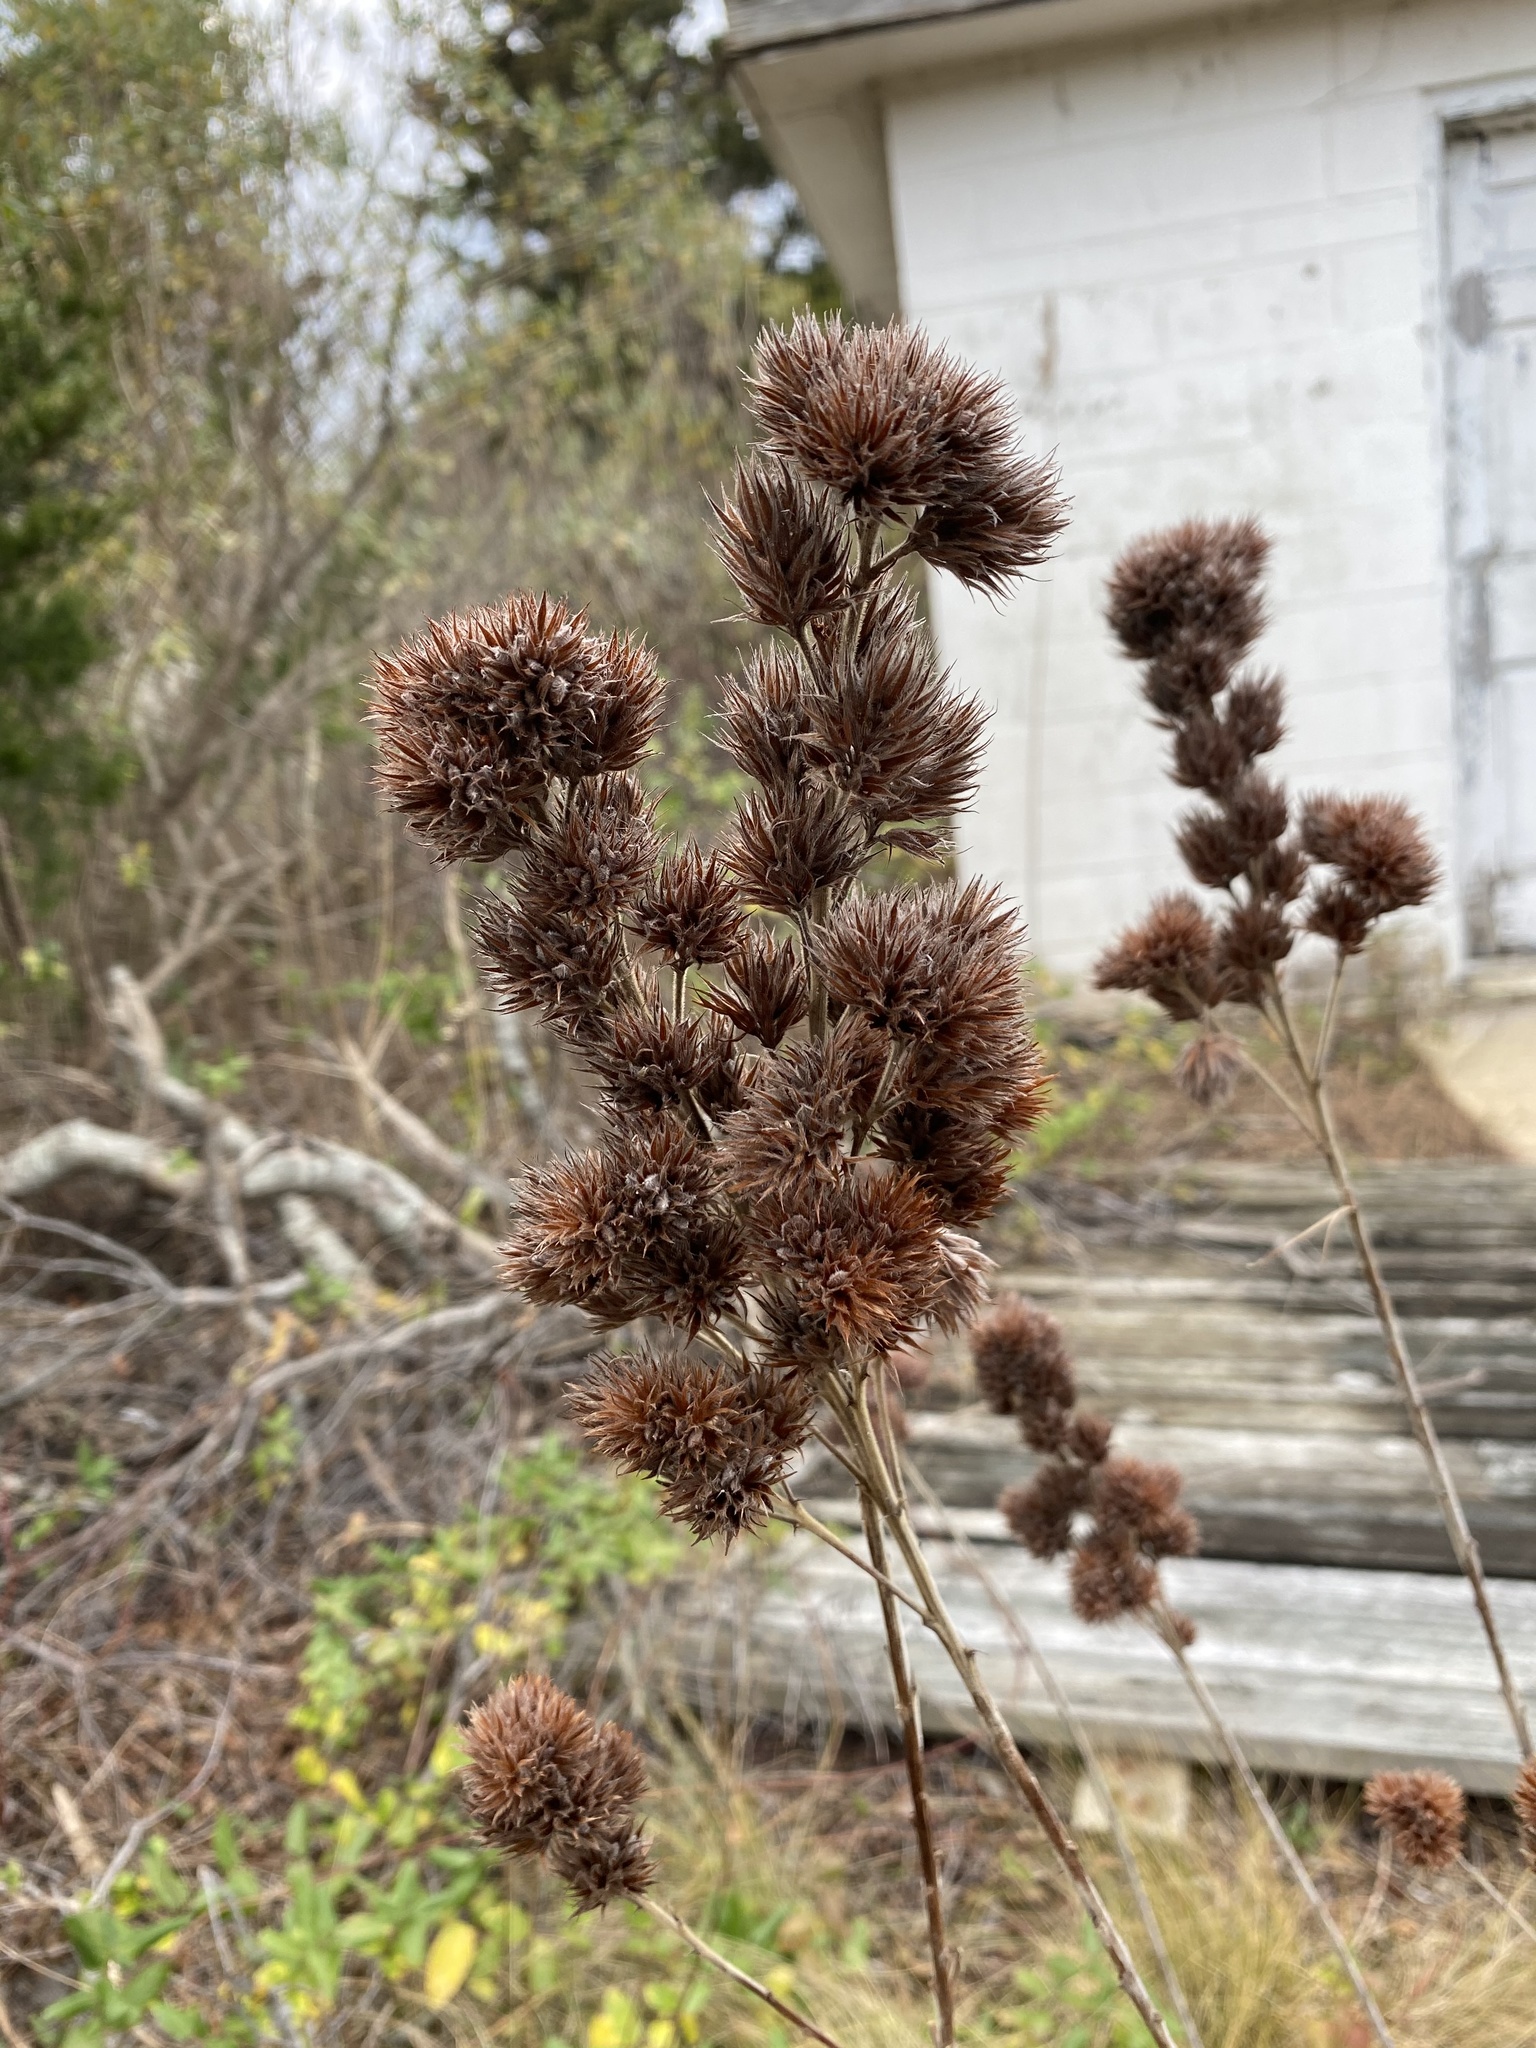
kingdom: Plantae
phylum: Tracheophyta
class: Magnoliopsida
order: Fabales
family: Fabaceae
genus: Lespedeza
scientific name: Lespedeza capitata
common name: Dusty clover
